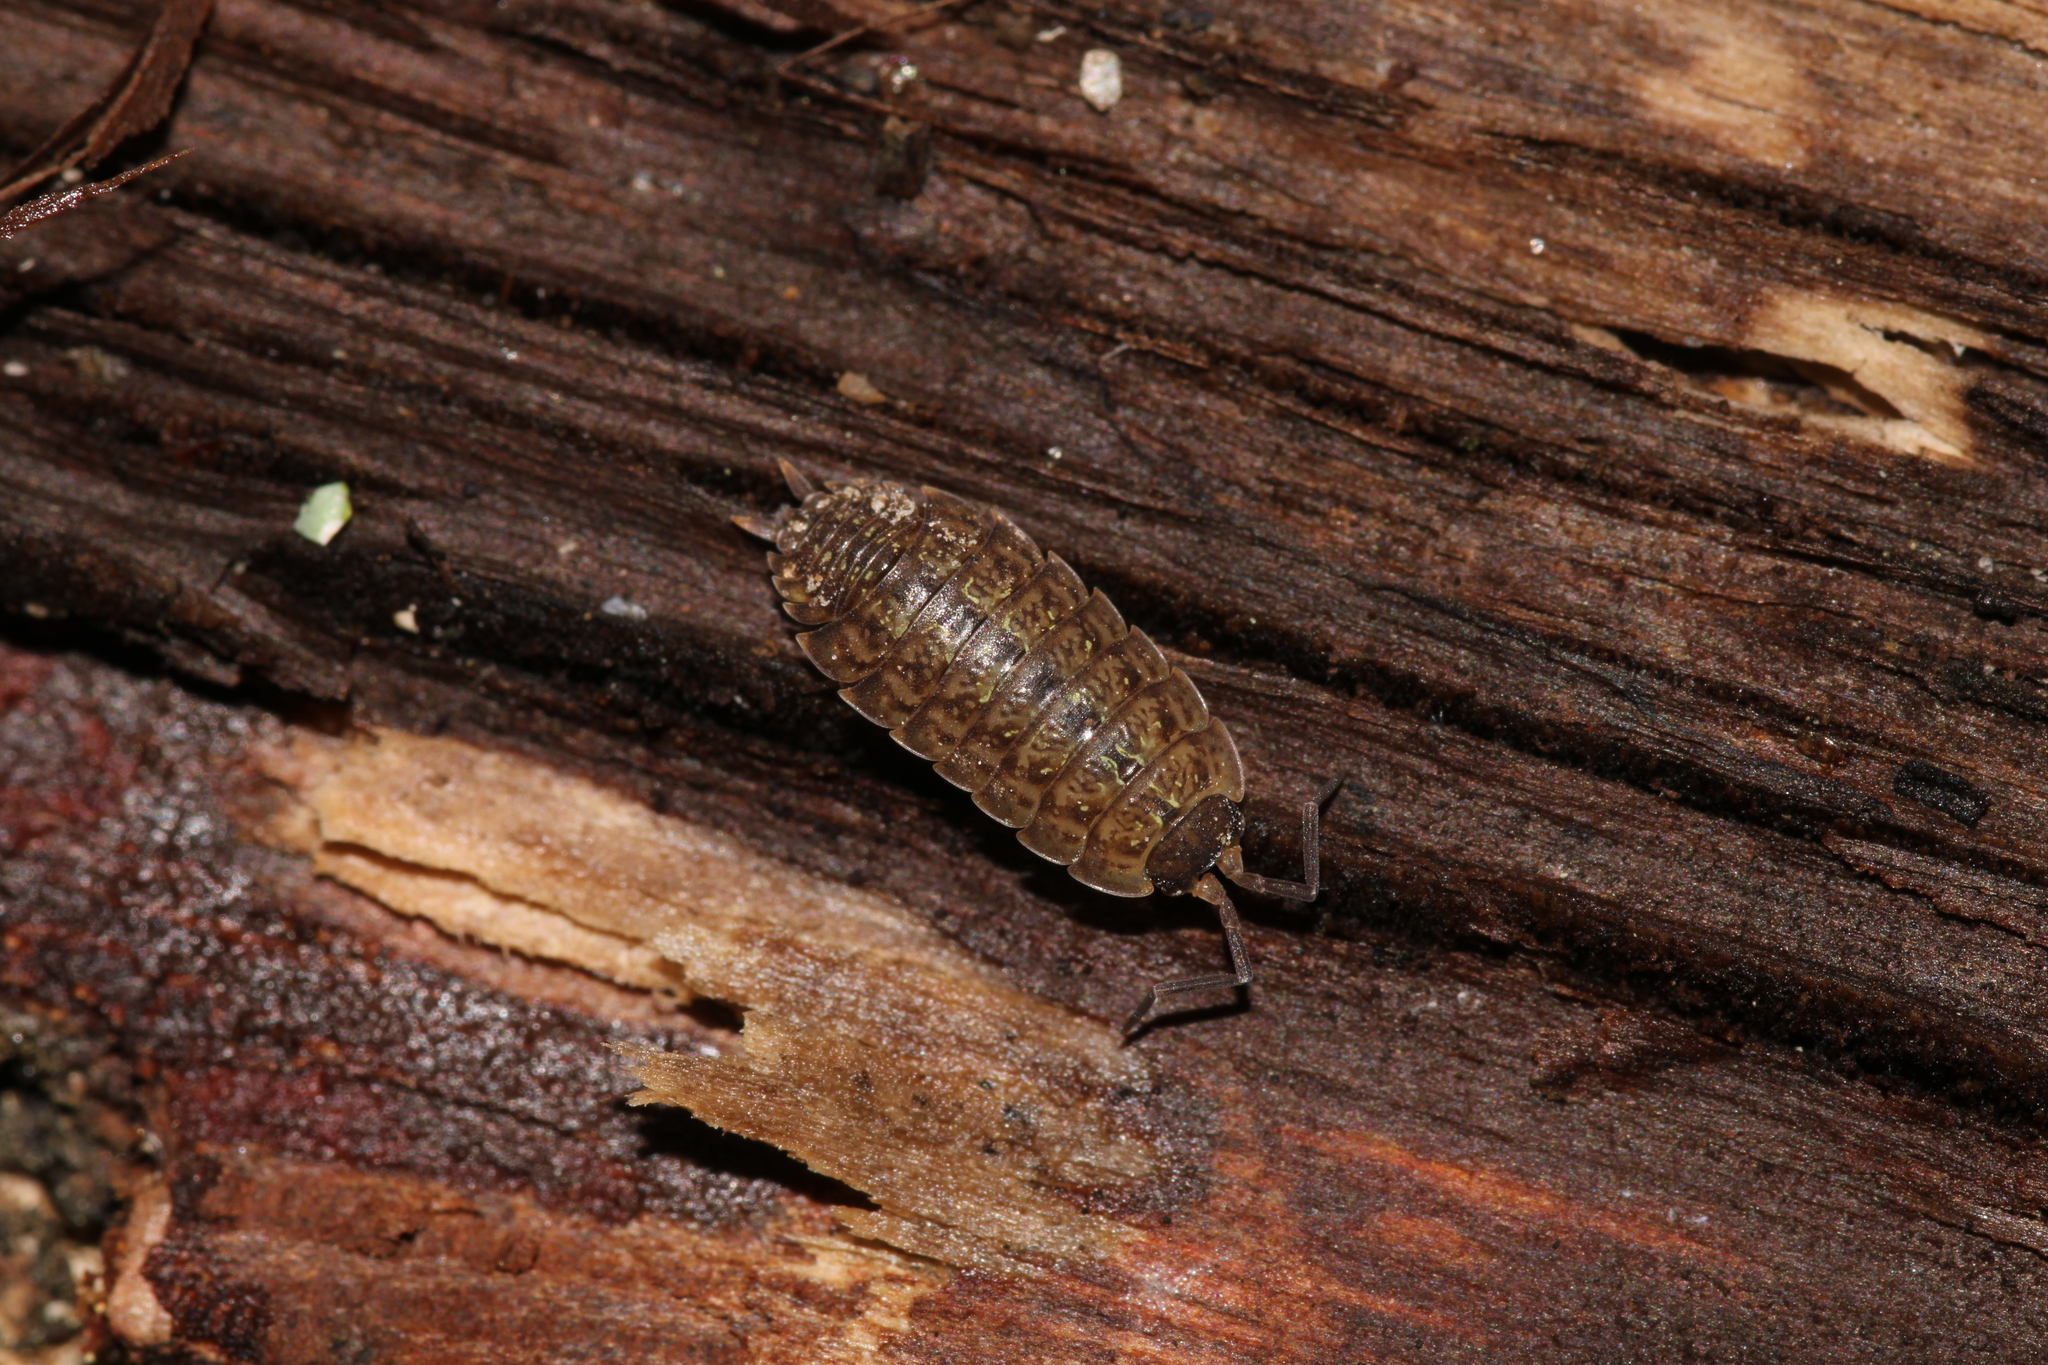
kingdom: Animalia
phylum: Arthropoda
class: Malacostraca
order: Isopoda
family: Porcellionidae
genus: Porcellio
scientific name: Porcellio monticola
